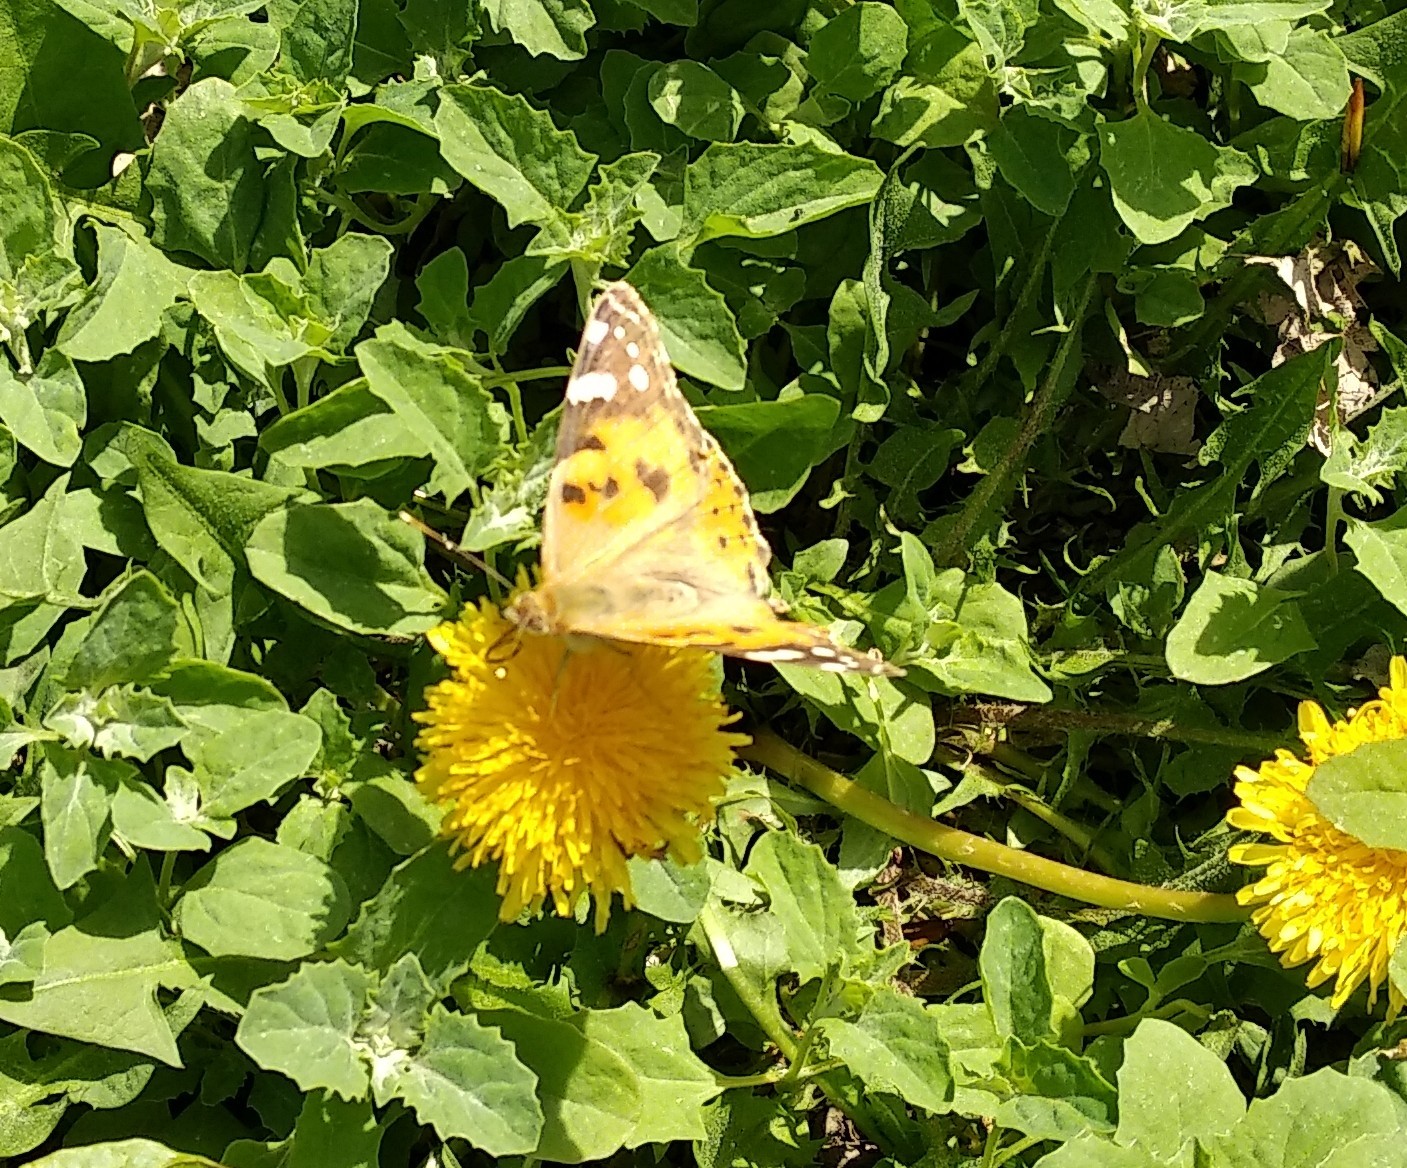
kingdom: Animalia
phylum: Arthropoda
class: Insecta
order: Lepidoptera
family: Nymphalidae
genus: Vanessa
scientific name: Vanessa cardui
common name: Painted lady
